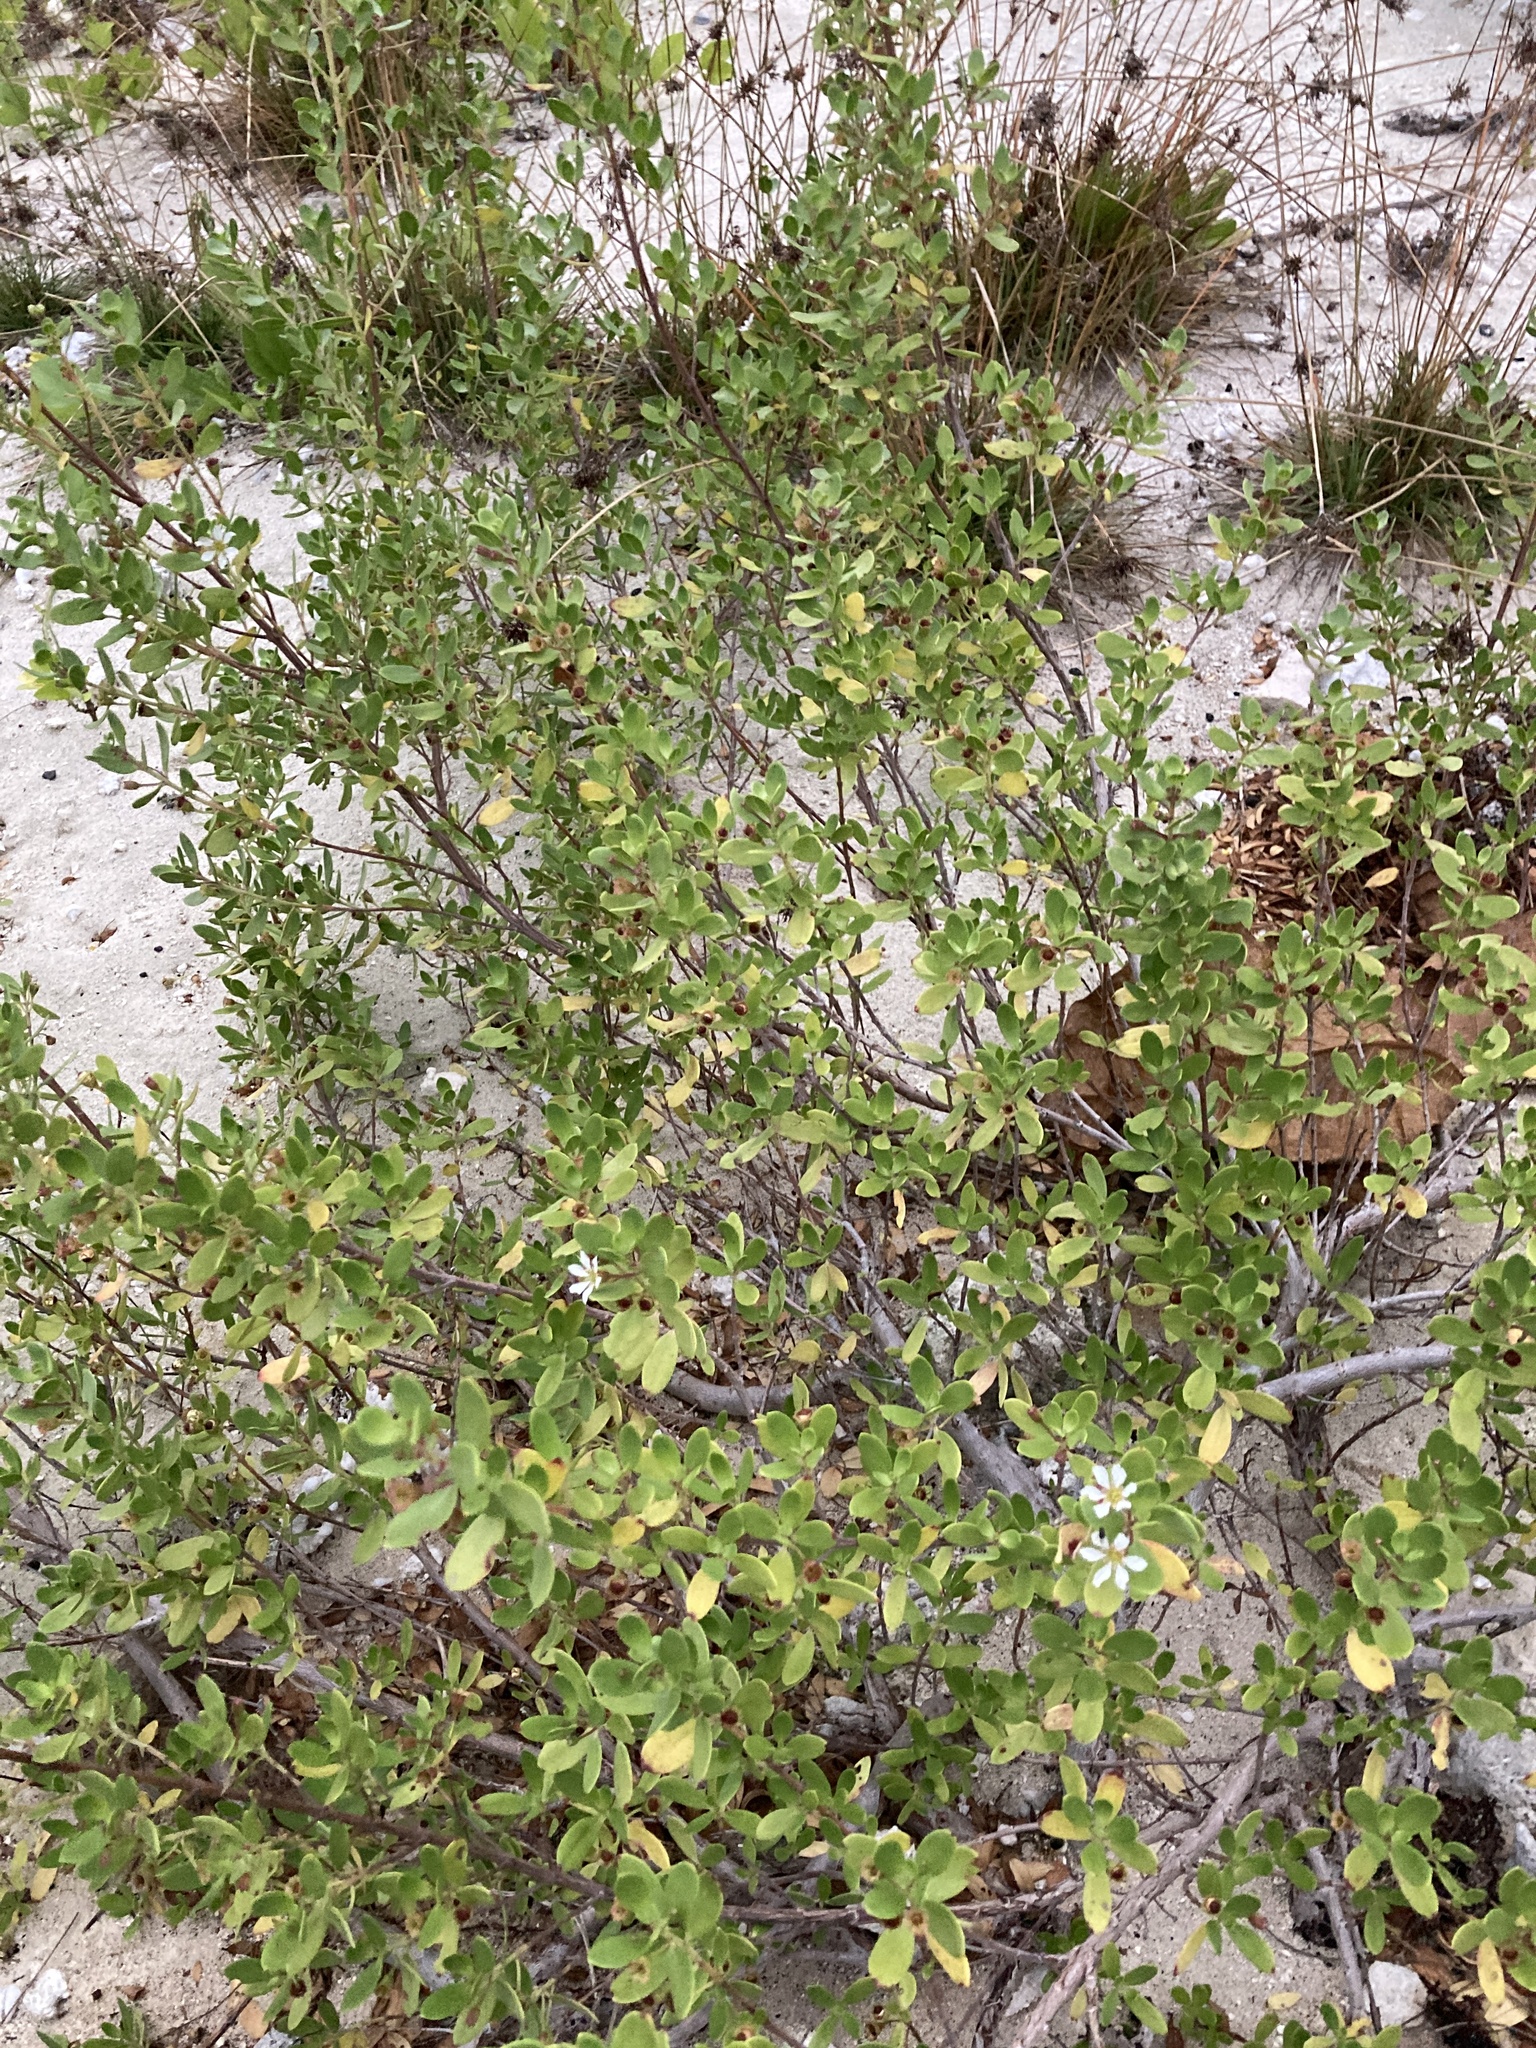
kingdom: Plantae
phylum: Tracheophyta
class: Magnoliopsida
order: Myrtales
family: Lythraceae
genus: Pemphis
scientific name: Pemphis acidula
